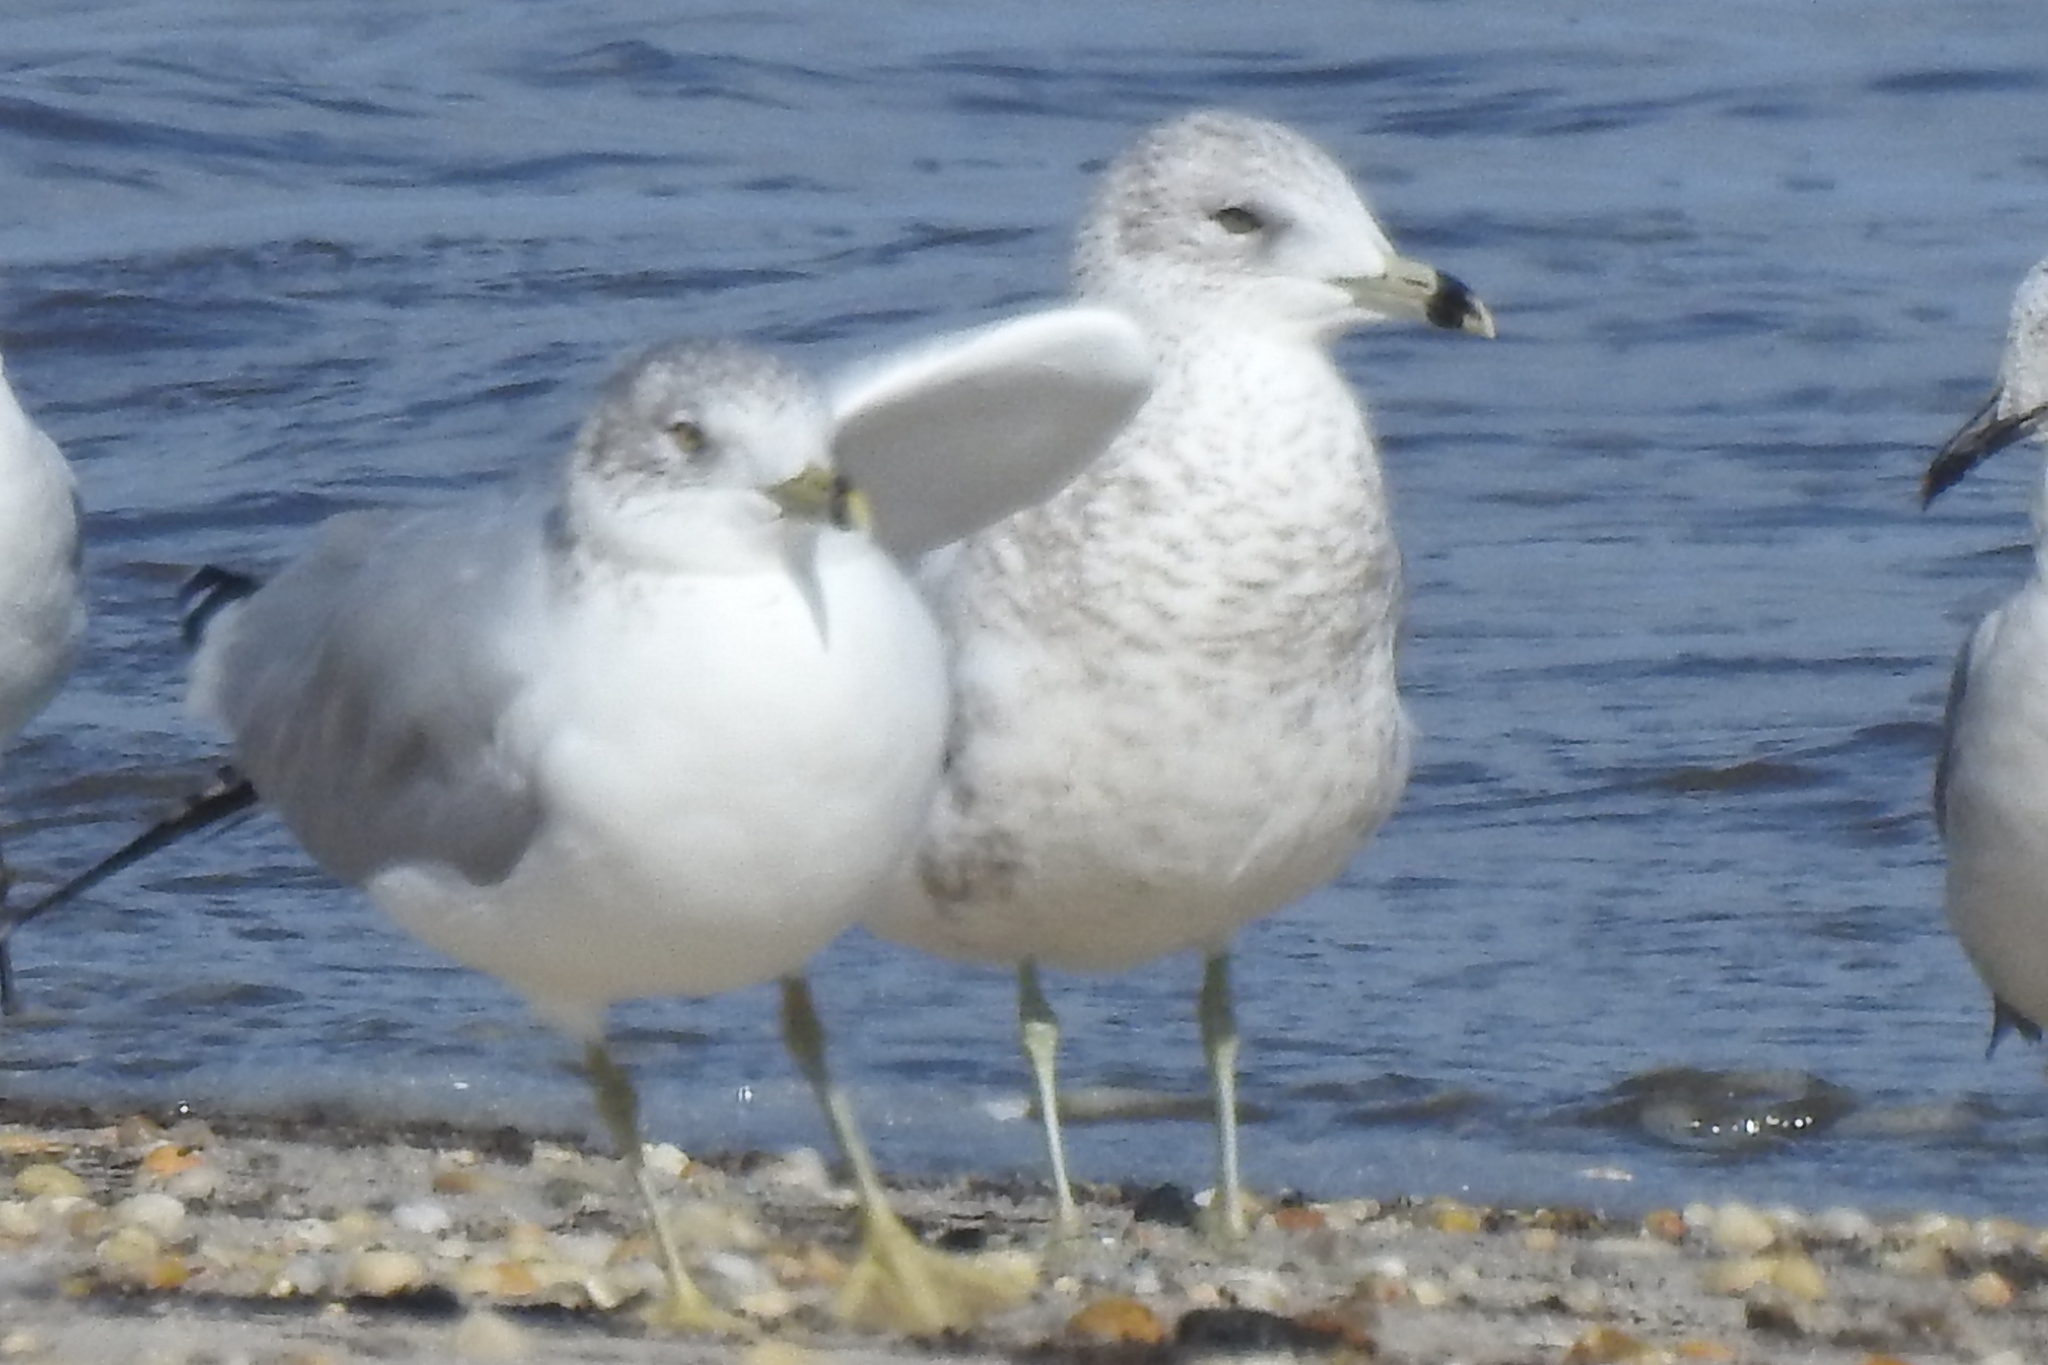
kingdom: Animalia
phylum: Chordata
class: Aves
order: Charadriiformes
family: Laridae
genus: Larus
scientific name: Larus delawarensis
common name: Ring-billed gull
